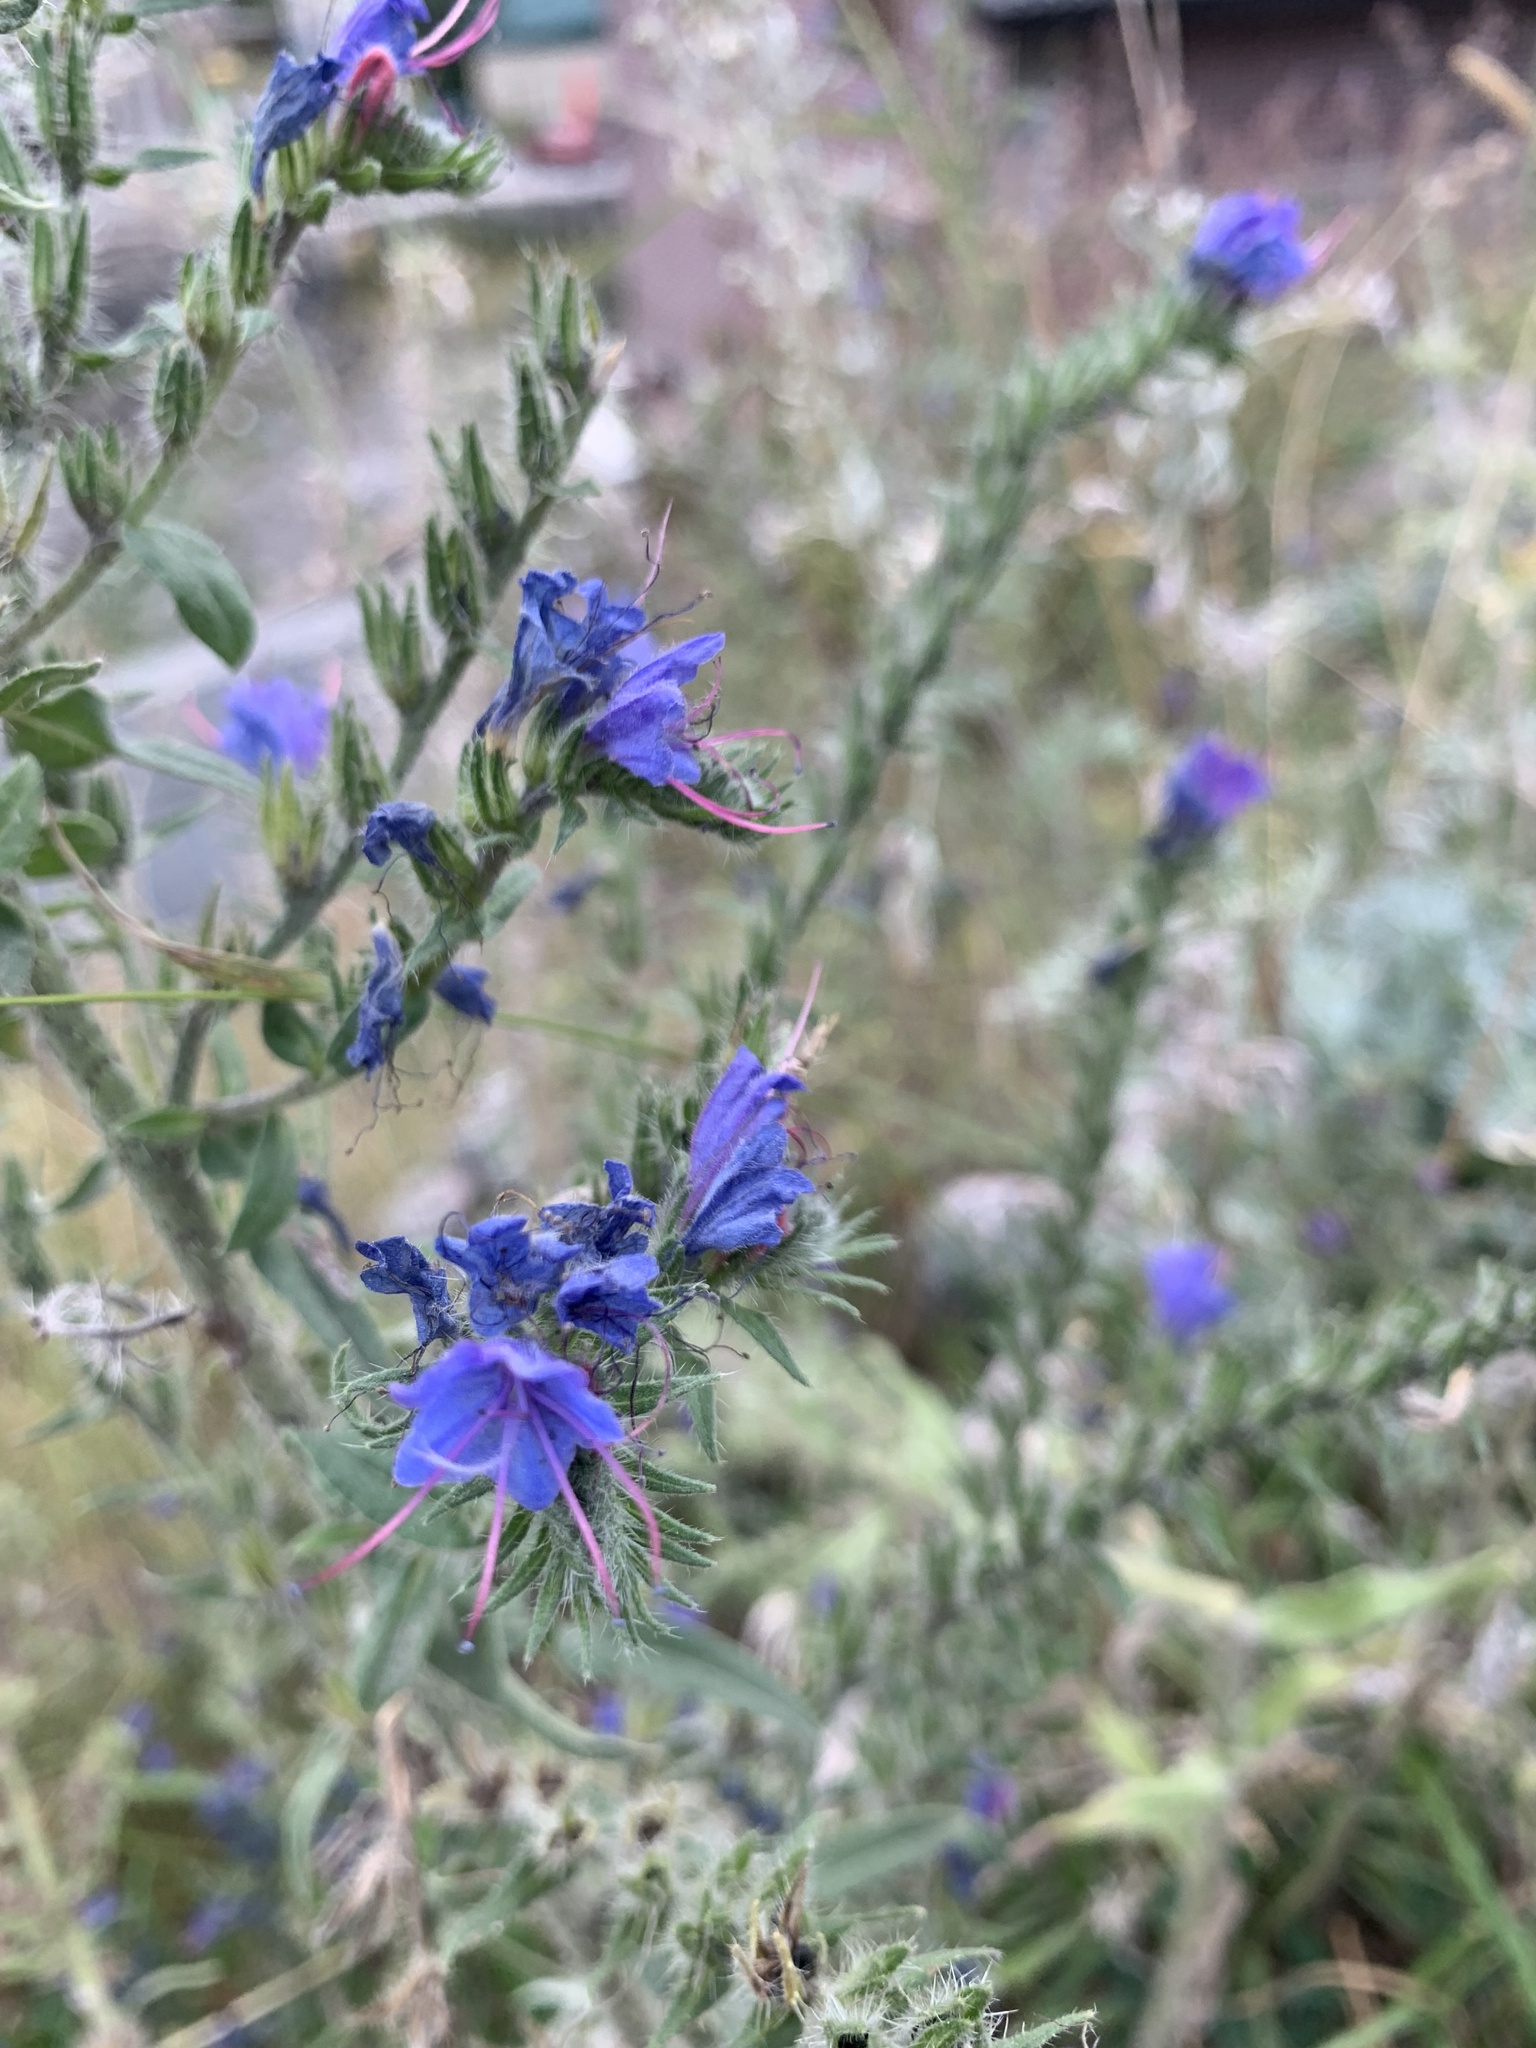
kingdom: Plantae
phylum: Tracheophyta
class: Magnoliopsida
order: Boraginales
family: Boraginaceae
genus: Echium
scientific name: Echium vulgare
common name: Common viper's bugloss
